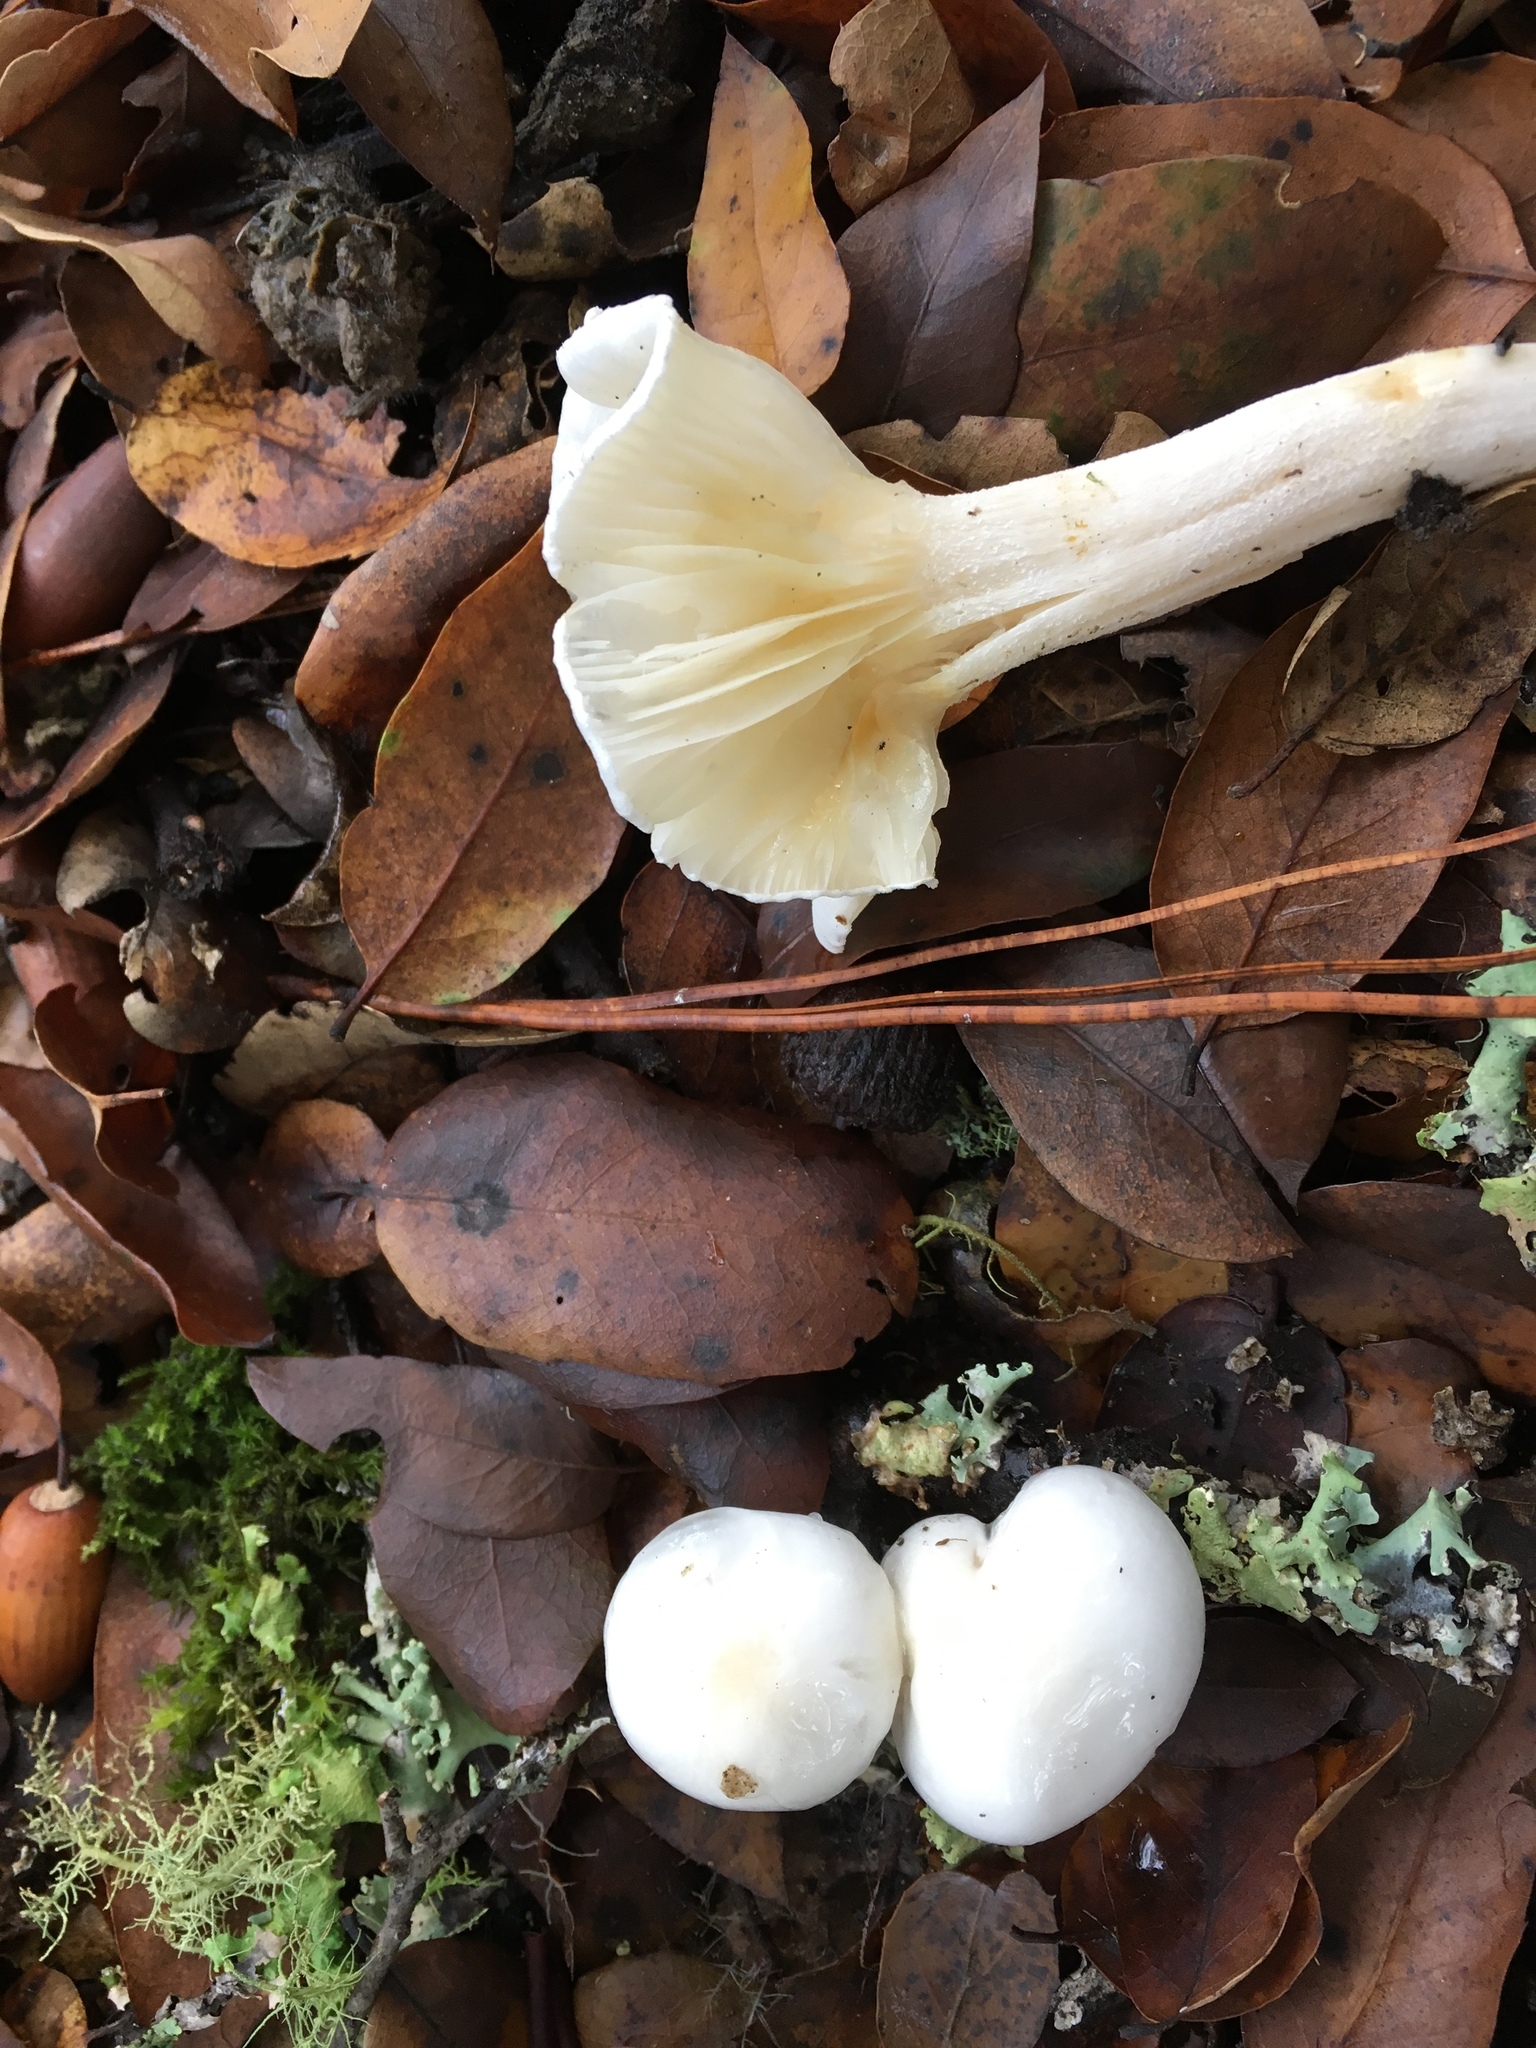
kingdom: Fungi
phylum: Basidiomycota
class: Agaricomycetes
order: Agaricales
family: Hygrophoraceae
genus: Hygrophorus
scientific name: Hygrophorus eburneus
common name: Ivory wax-cap
